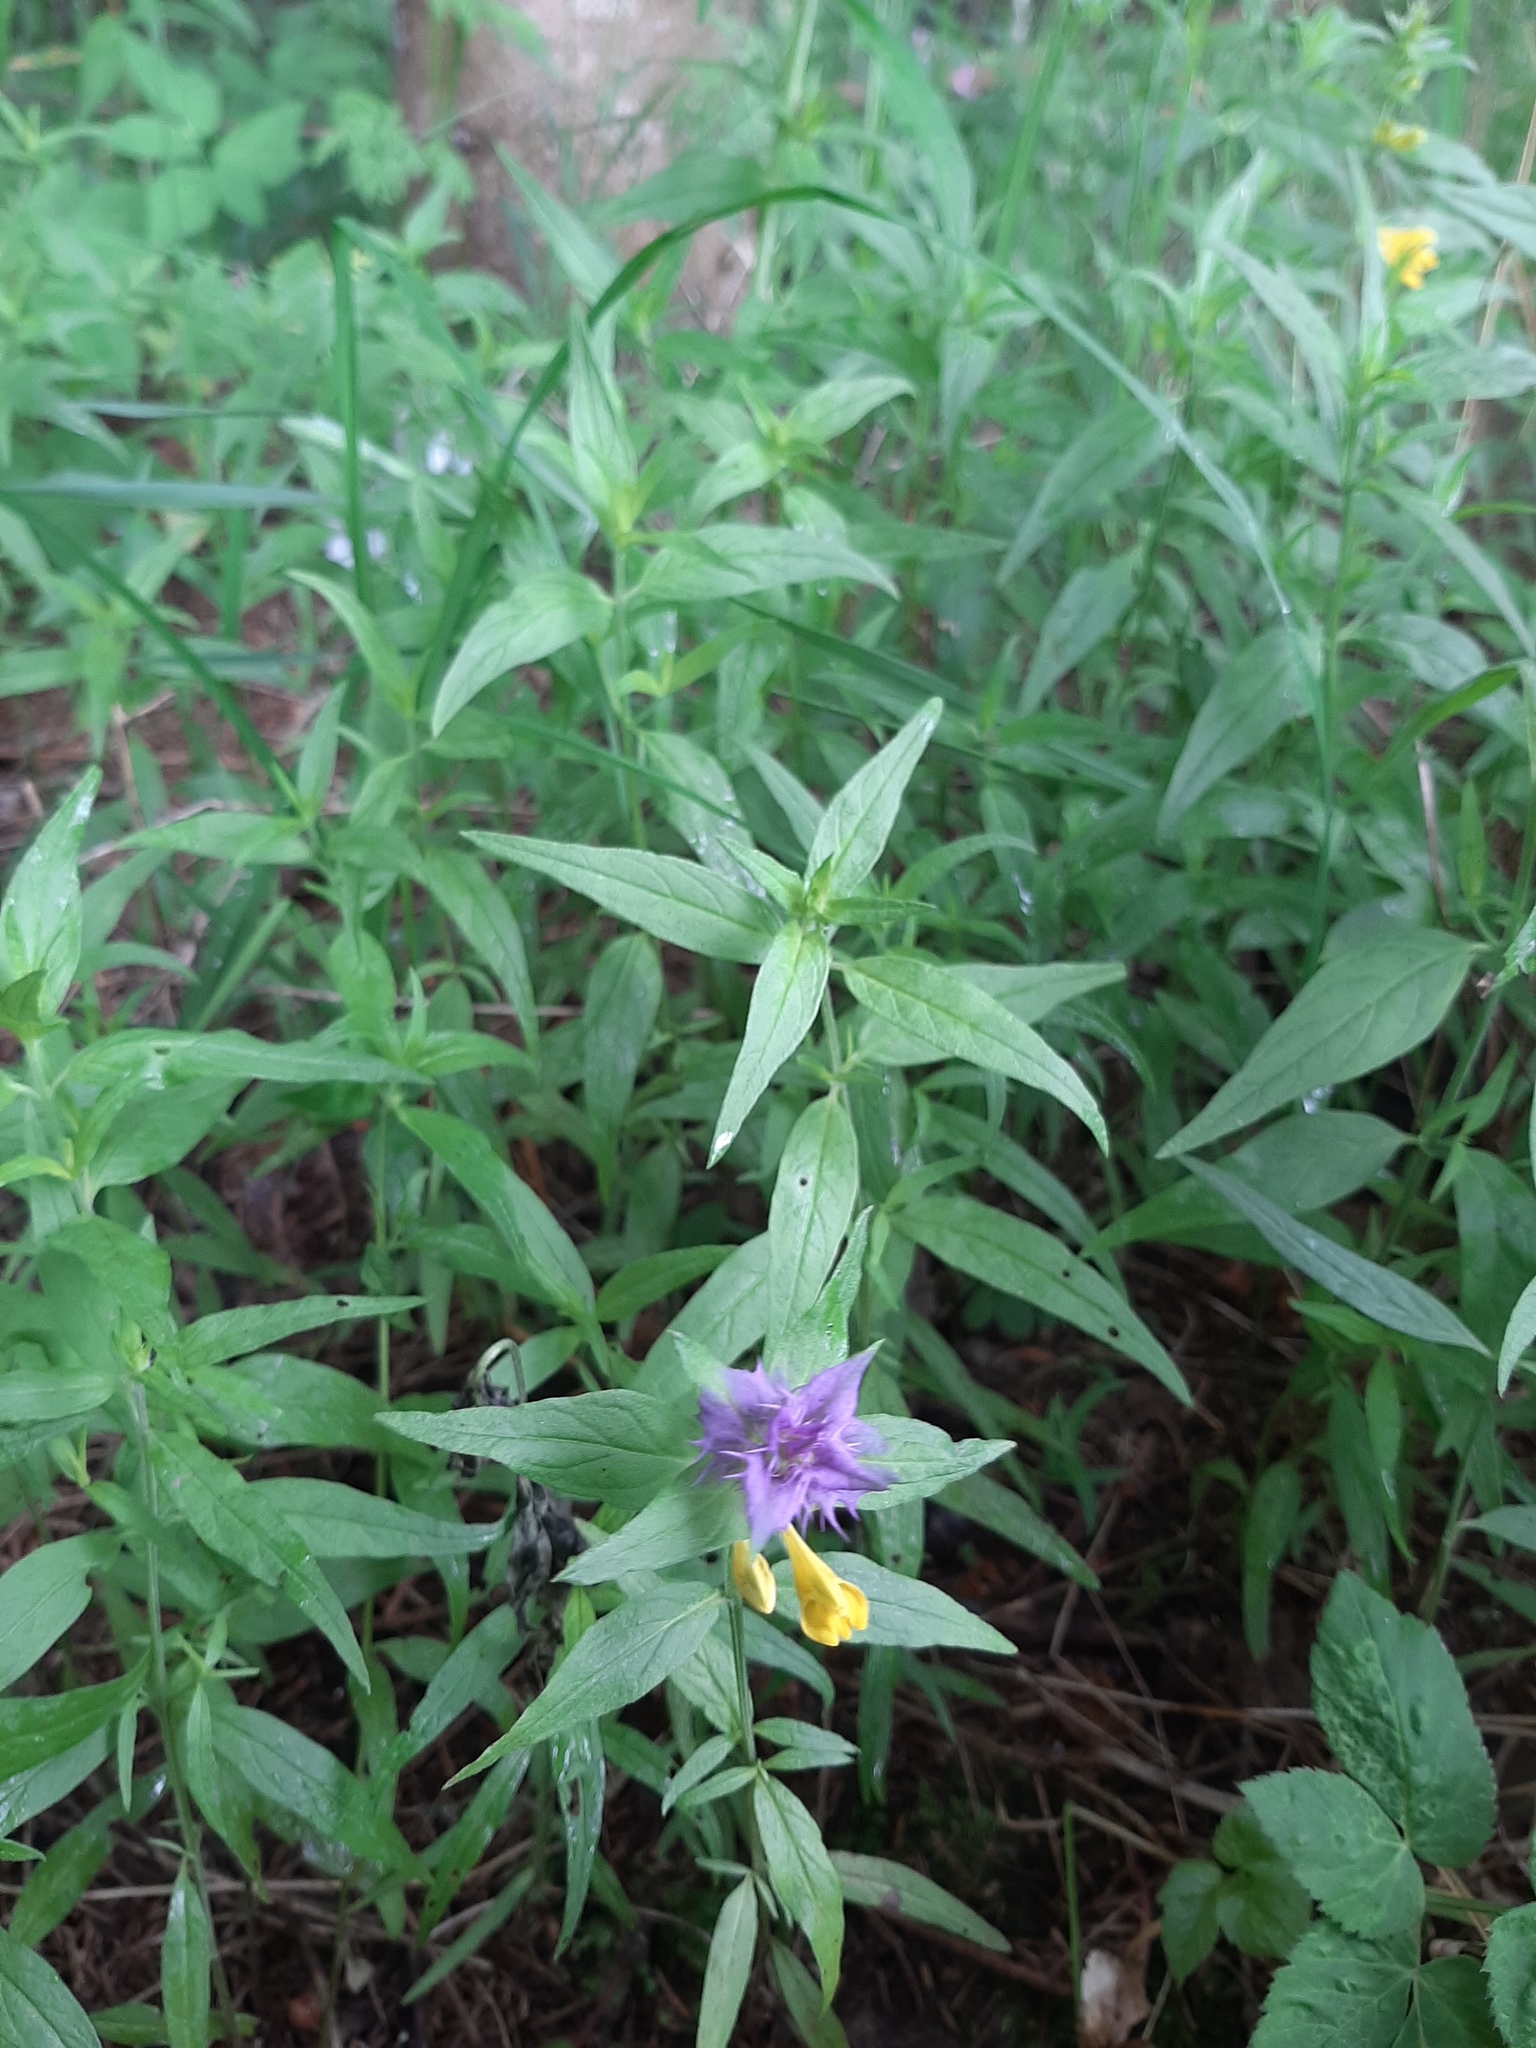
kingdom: Plantae
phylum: Tracheophyta
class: Magnoliopsida
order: Lamiales
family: Orobanchaceae
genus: Melampyrum
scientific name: Melampyrum nemorosum
